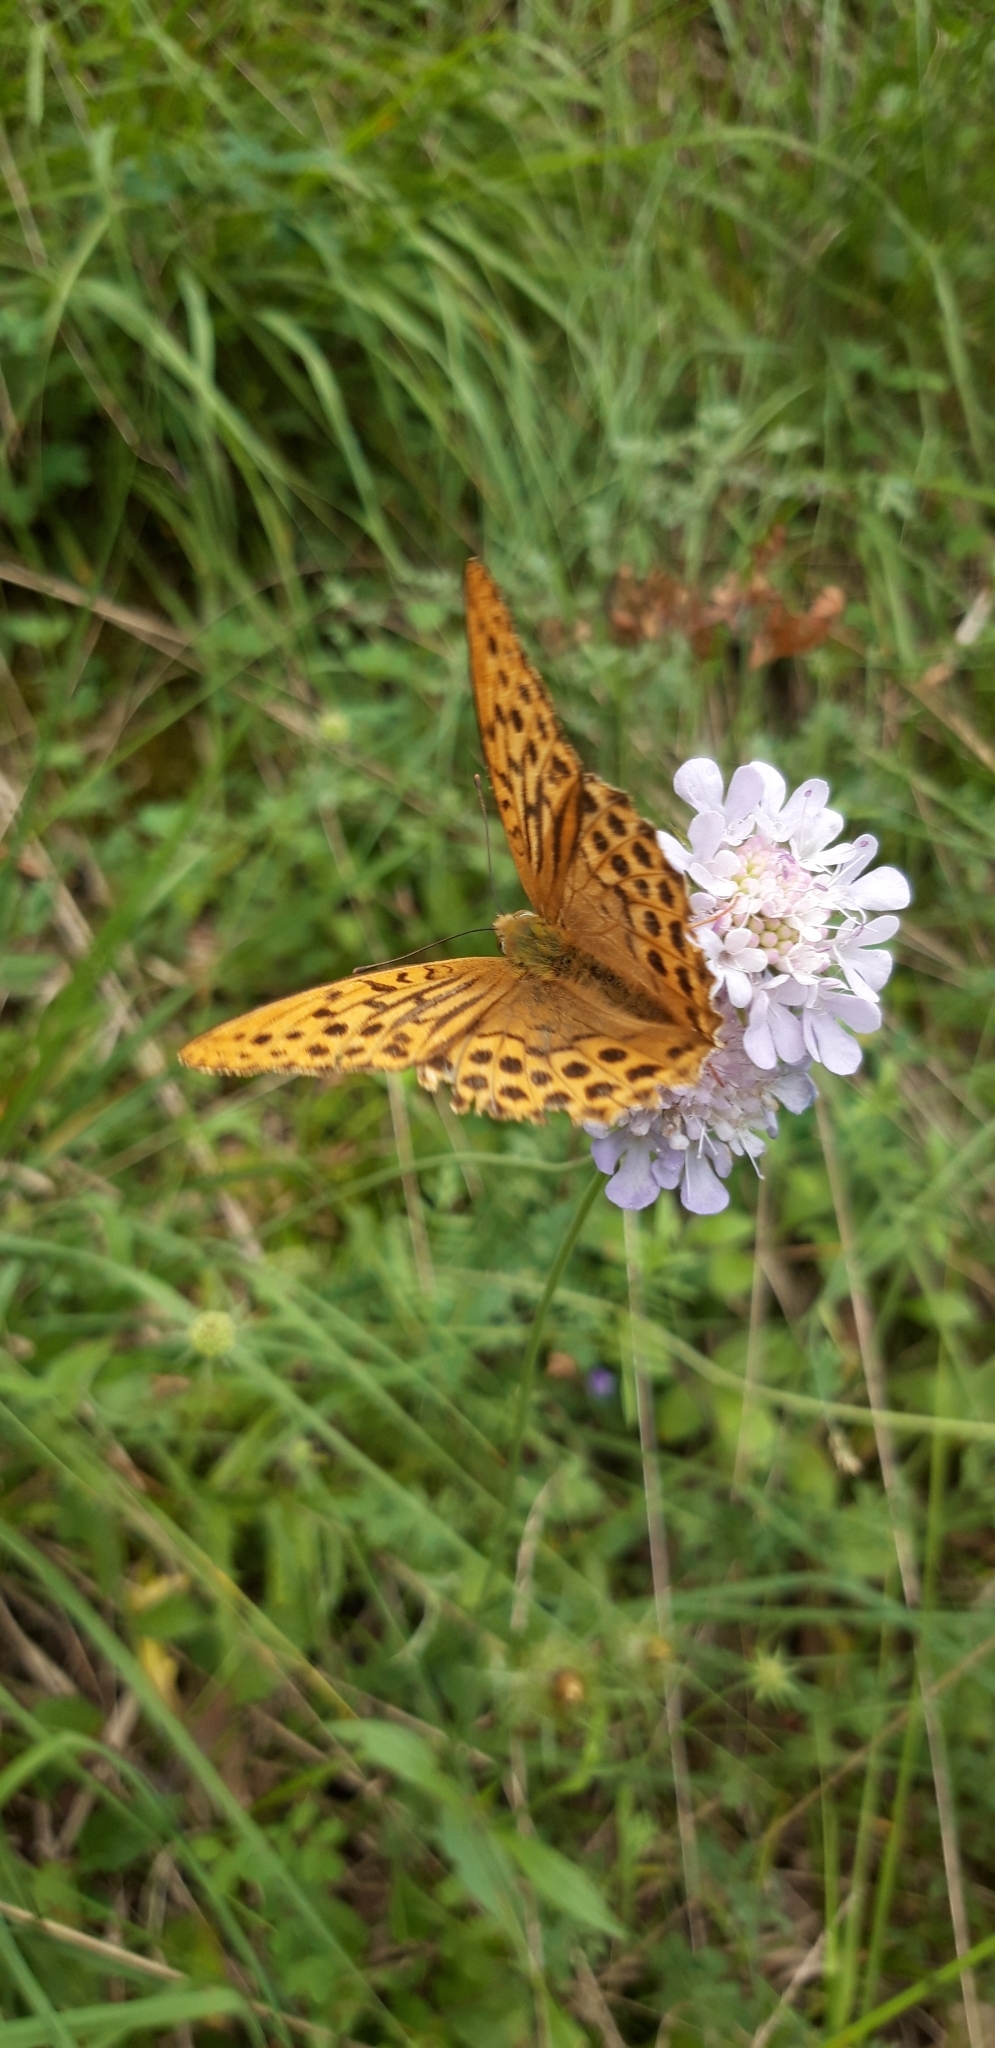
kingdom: Animalia
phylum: Arthropoda
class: Insecta
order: Lepidoptera
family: Nymphalidae
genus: Argynnis
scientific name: Argynnis paphia
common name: Silver-washed fritillary
